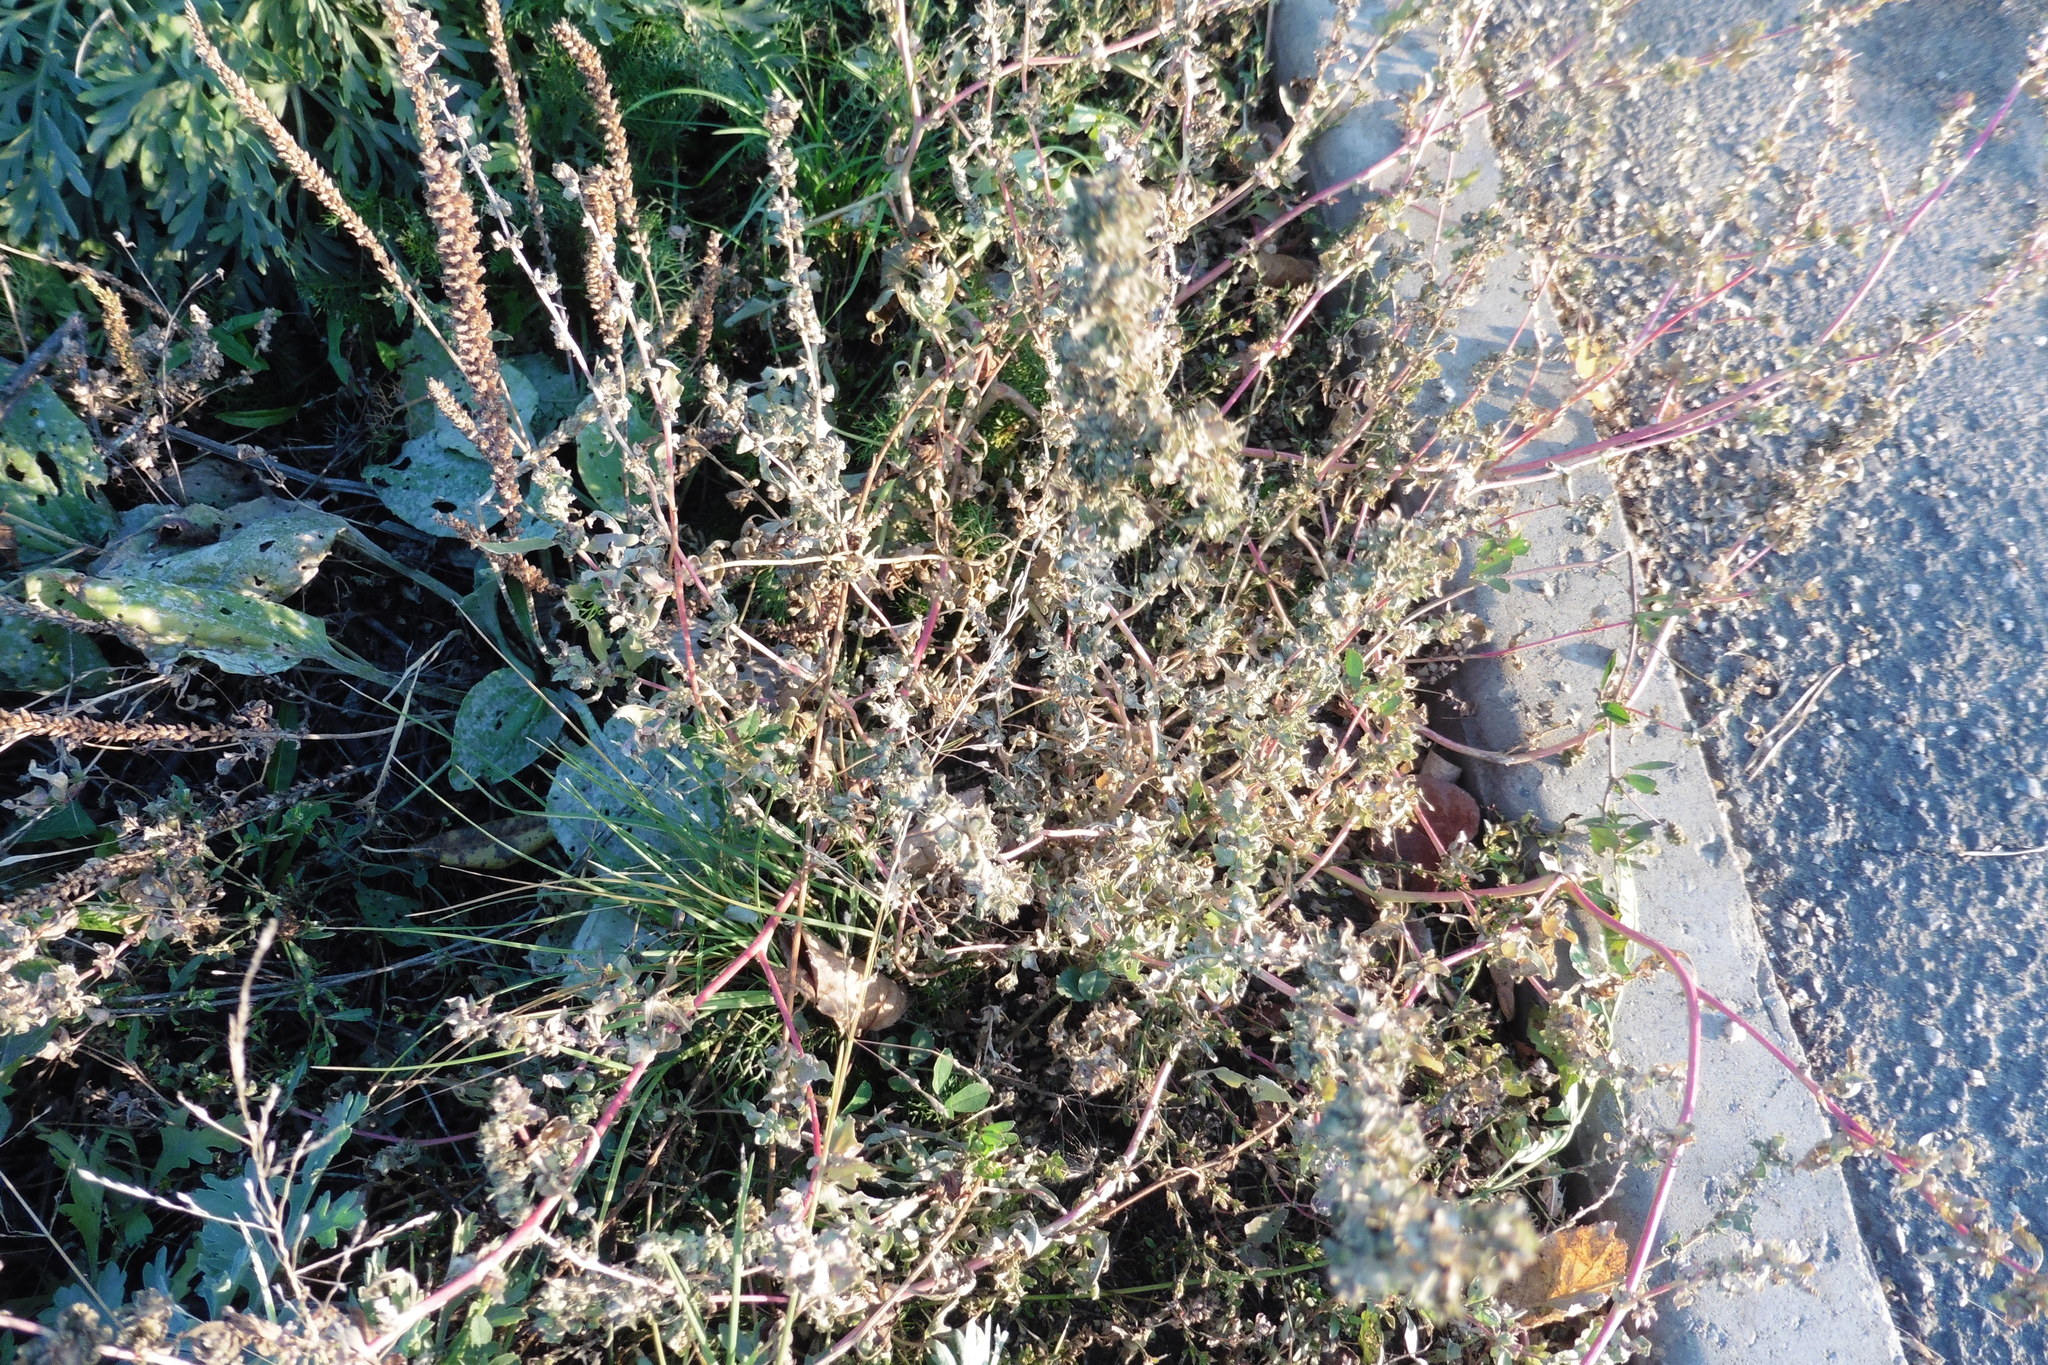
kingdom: Plantae
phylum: Tracheophyta
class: Magnoliopsida
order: Caryophyllales
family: Amaranthaceae
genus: Atriplex
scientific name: Atriplex tatarica
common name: Tatarian orache
